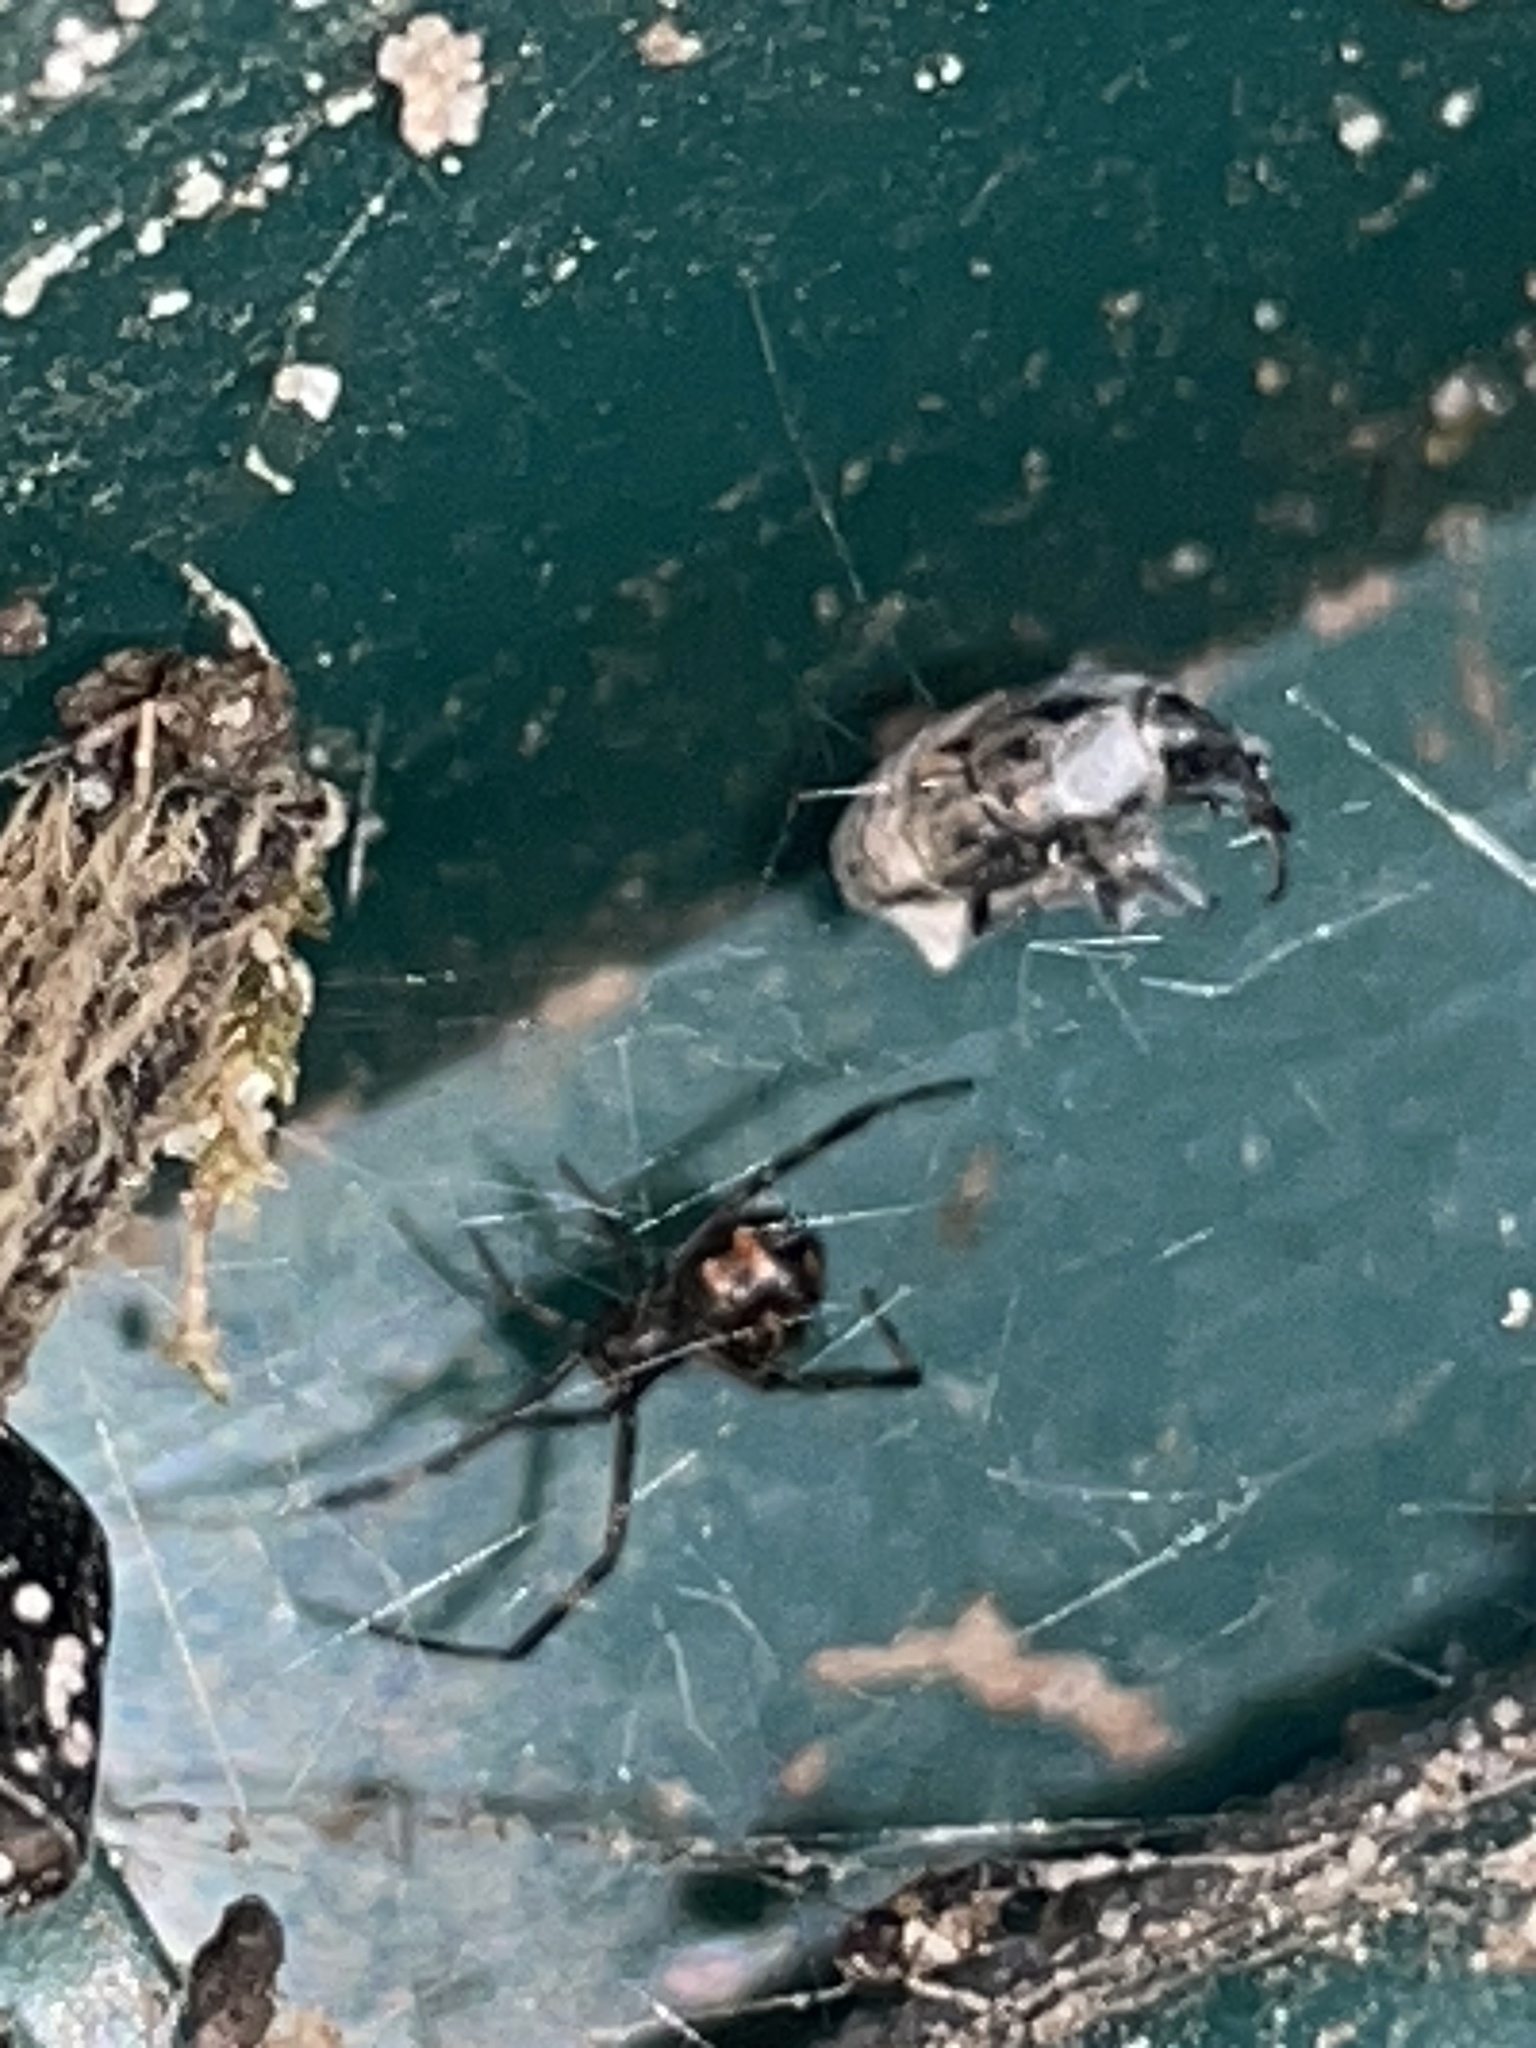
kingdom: Animalia
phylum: Arthropoda
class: Arachnida
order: Araneae
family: Theridiidae
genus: Latrodectus
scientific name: Latrodectus mactans
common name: Cobweb spiders
